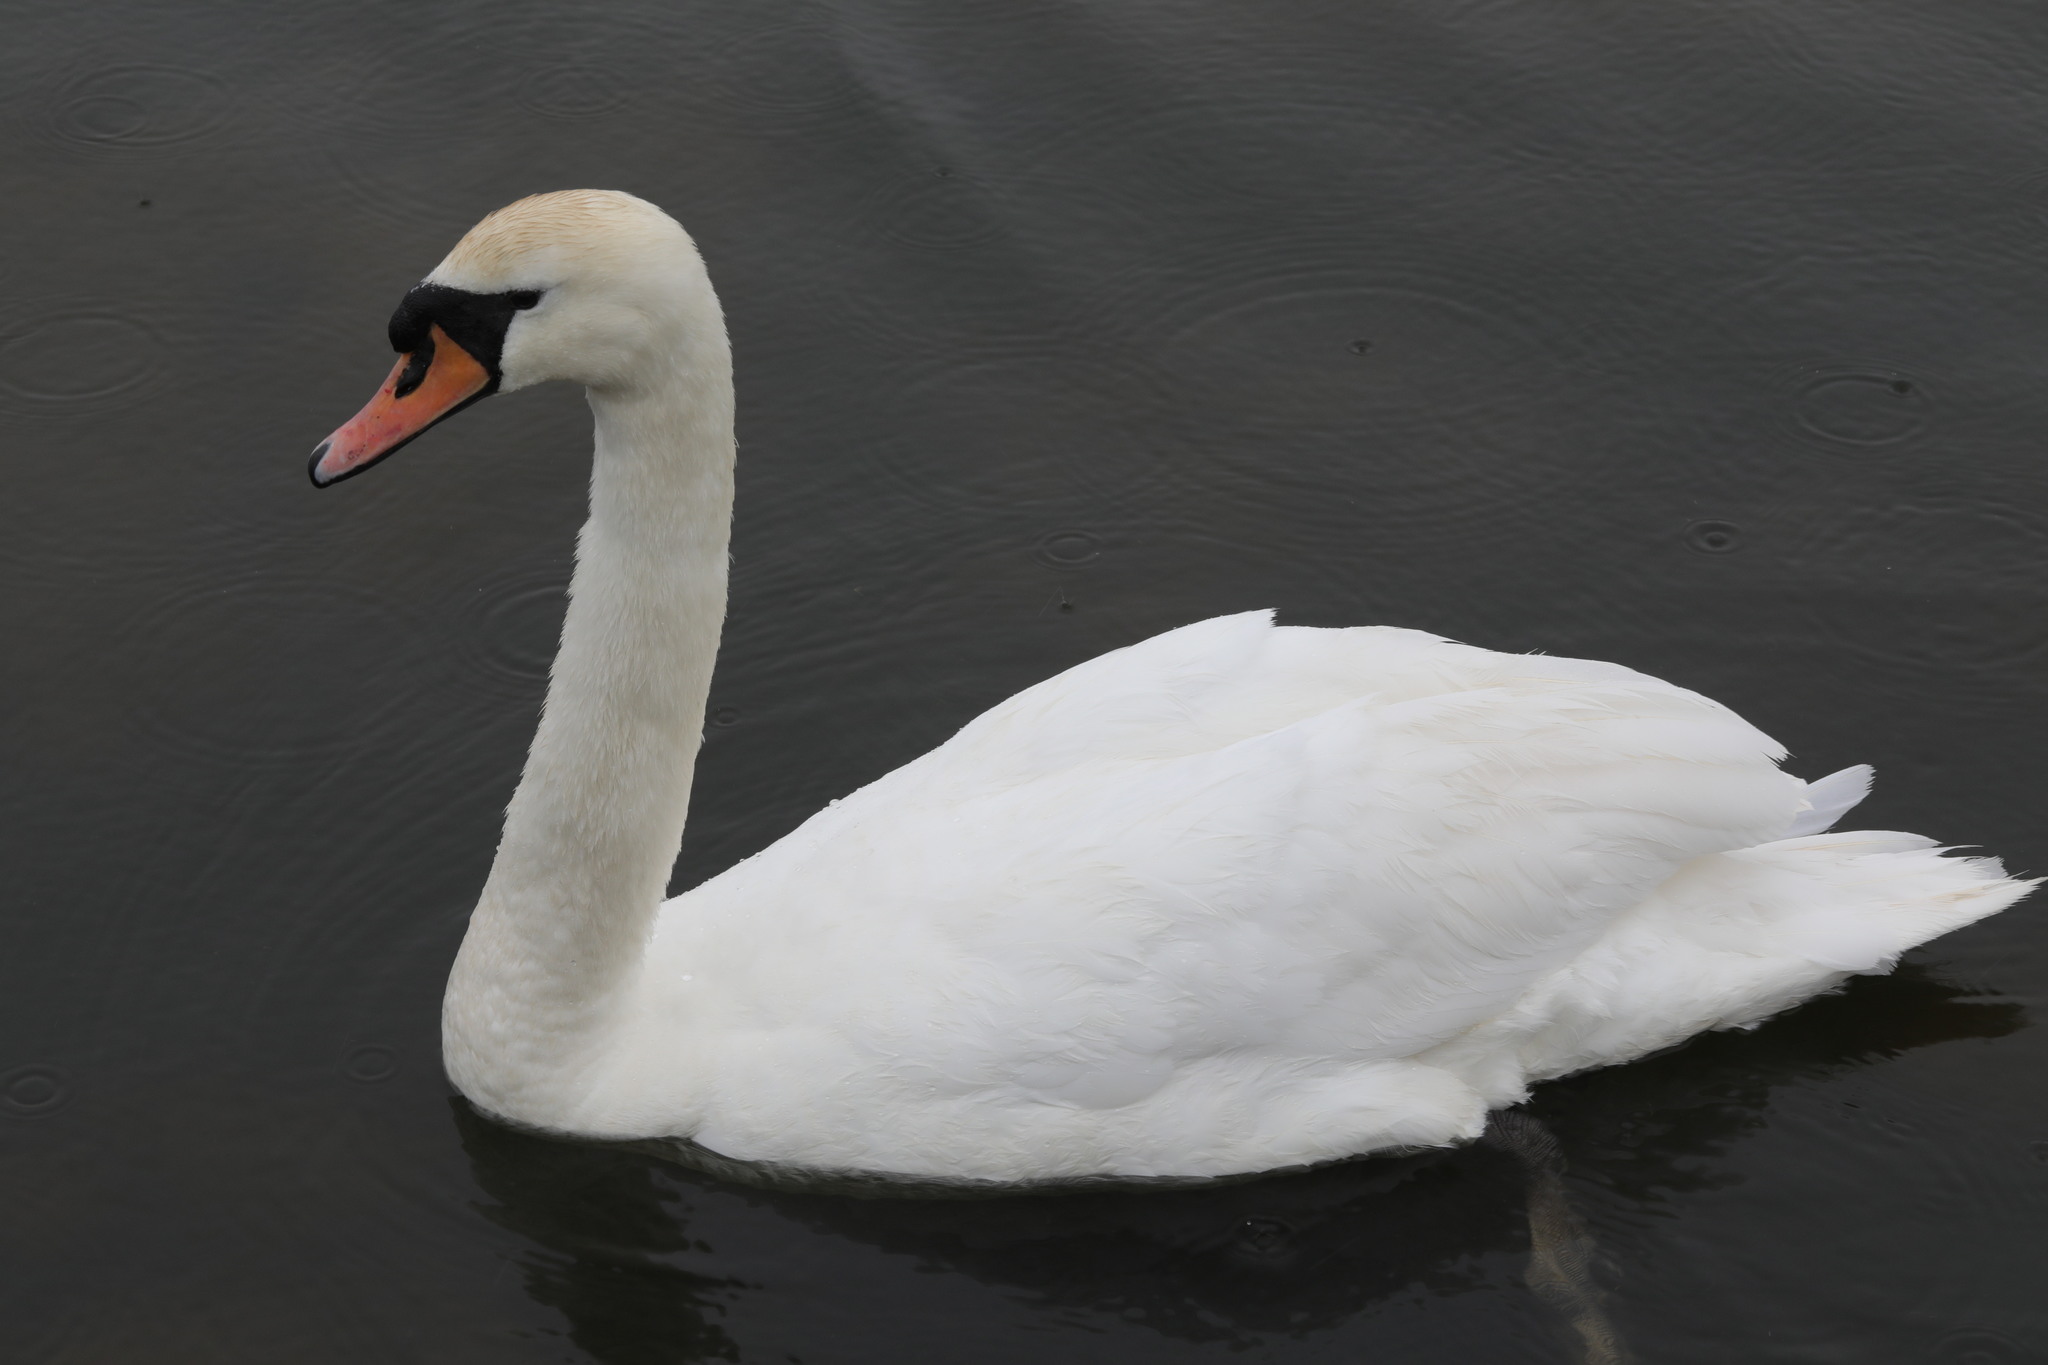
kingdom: Animalia
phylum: Chordata
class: Aves
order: Anseriformes
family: Anatidae
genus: Cygnus
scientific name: Cygnus olor
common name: Mute swan
